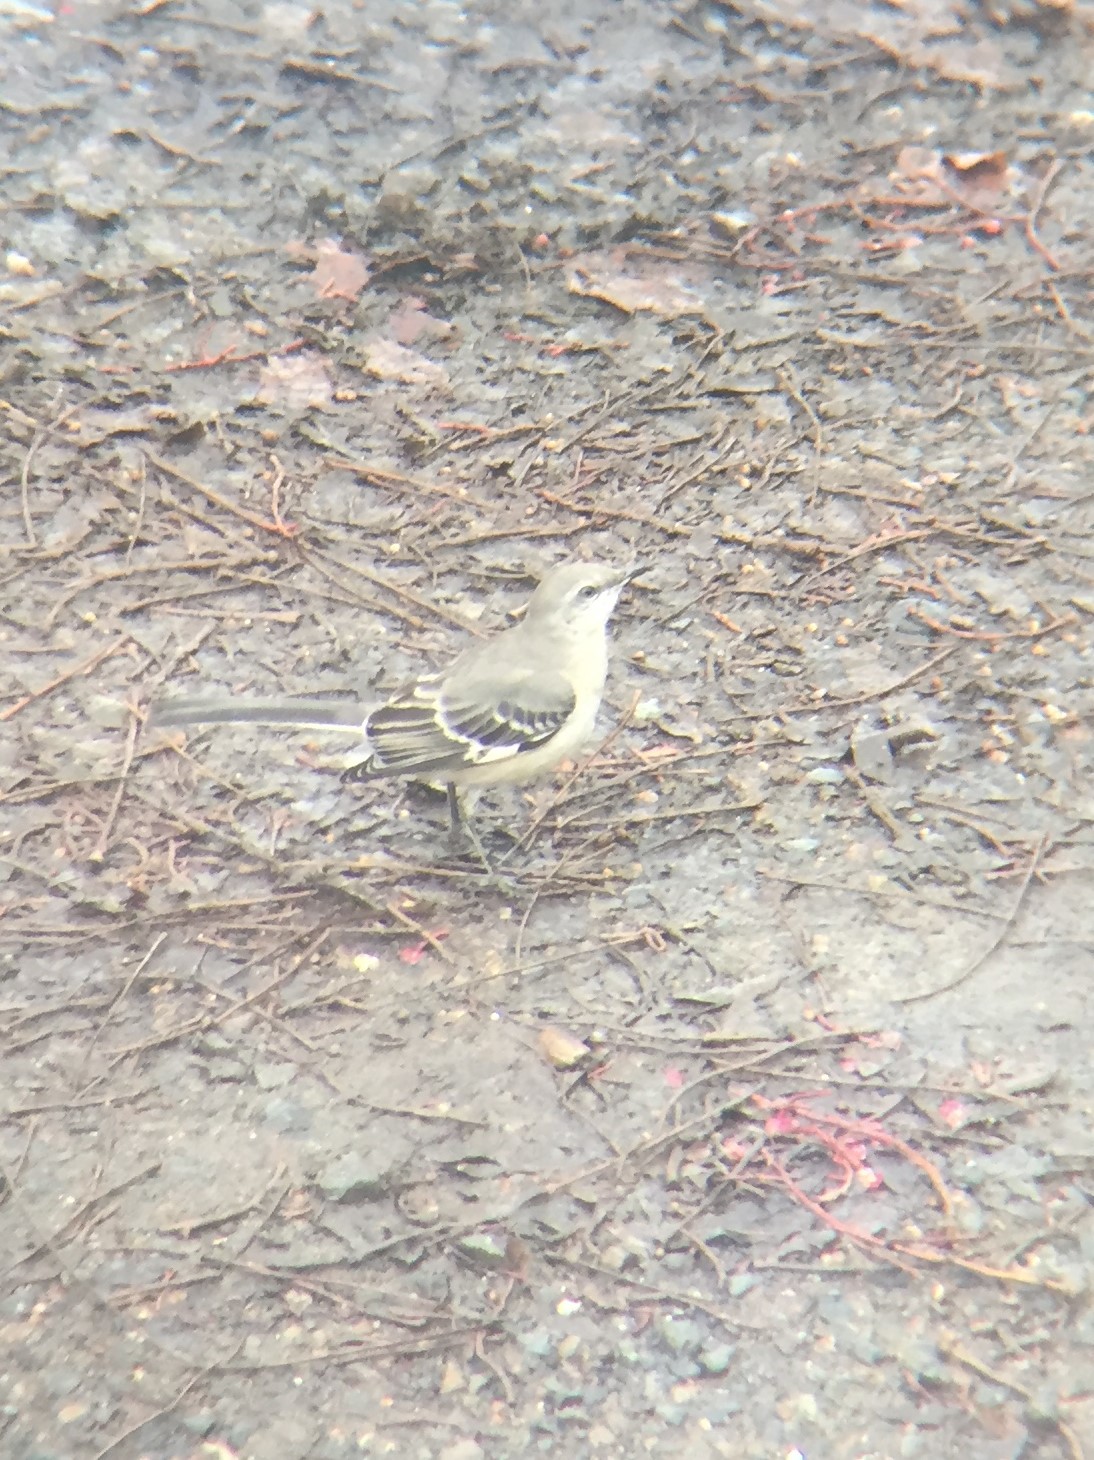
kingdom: Animalia
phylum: Chordata
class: Aves
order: Passeriformes
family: Mimidae
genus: Mimus
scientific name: Mimus polyglottos
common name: Northern mockingbird
